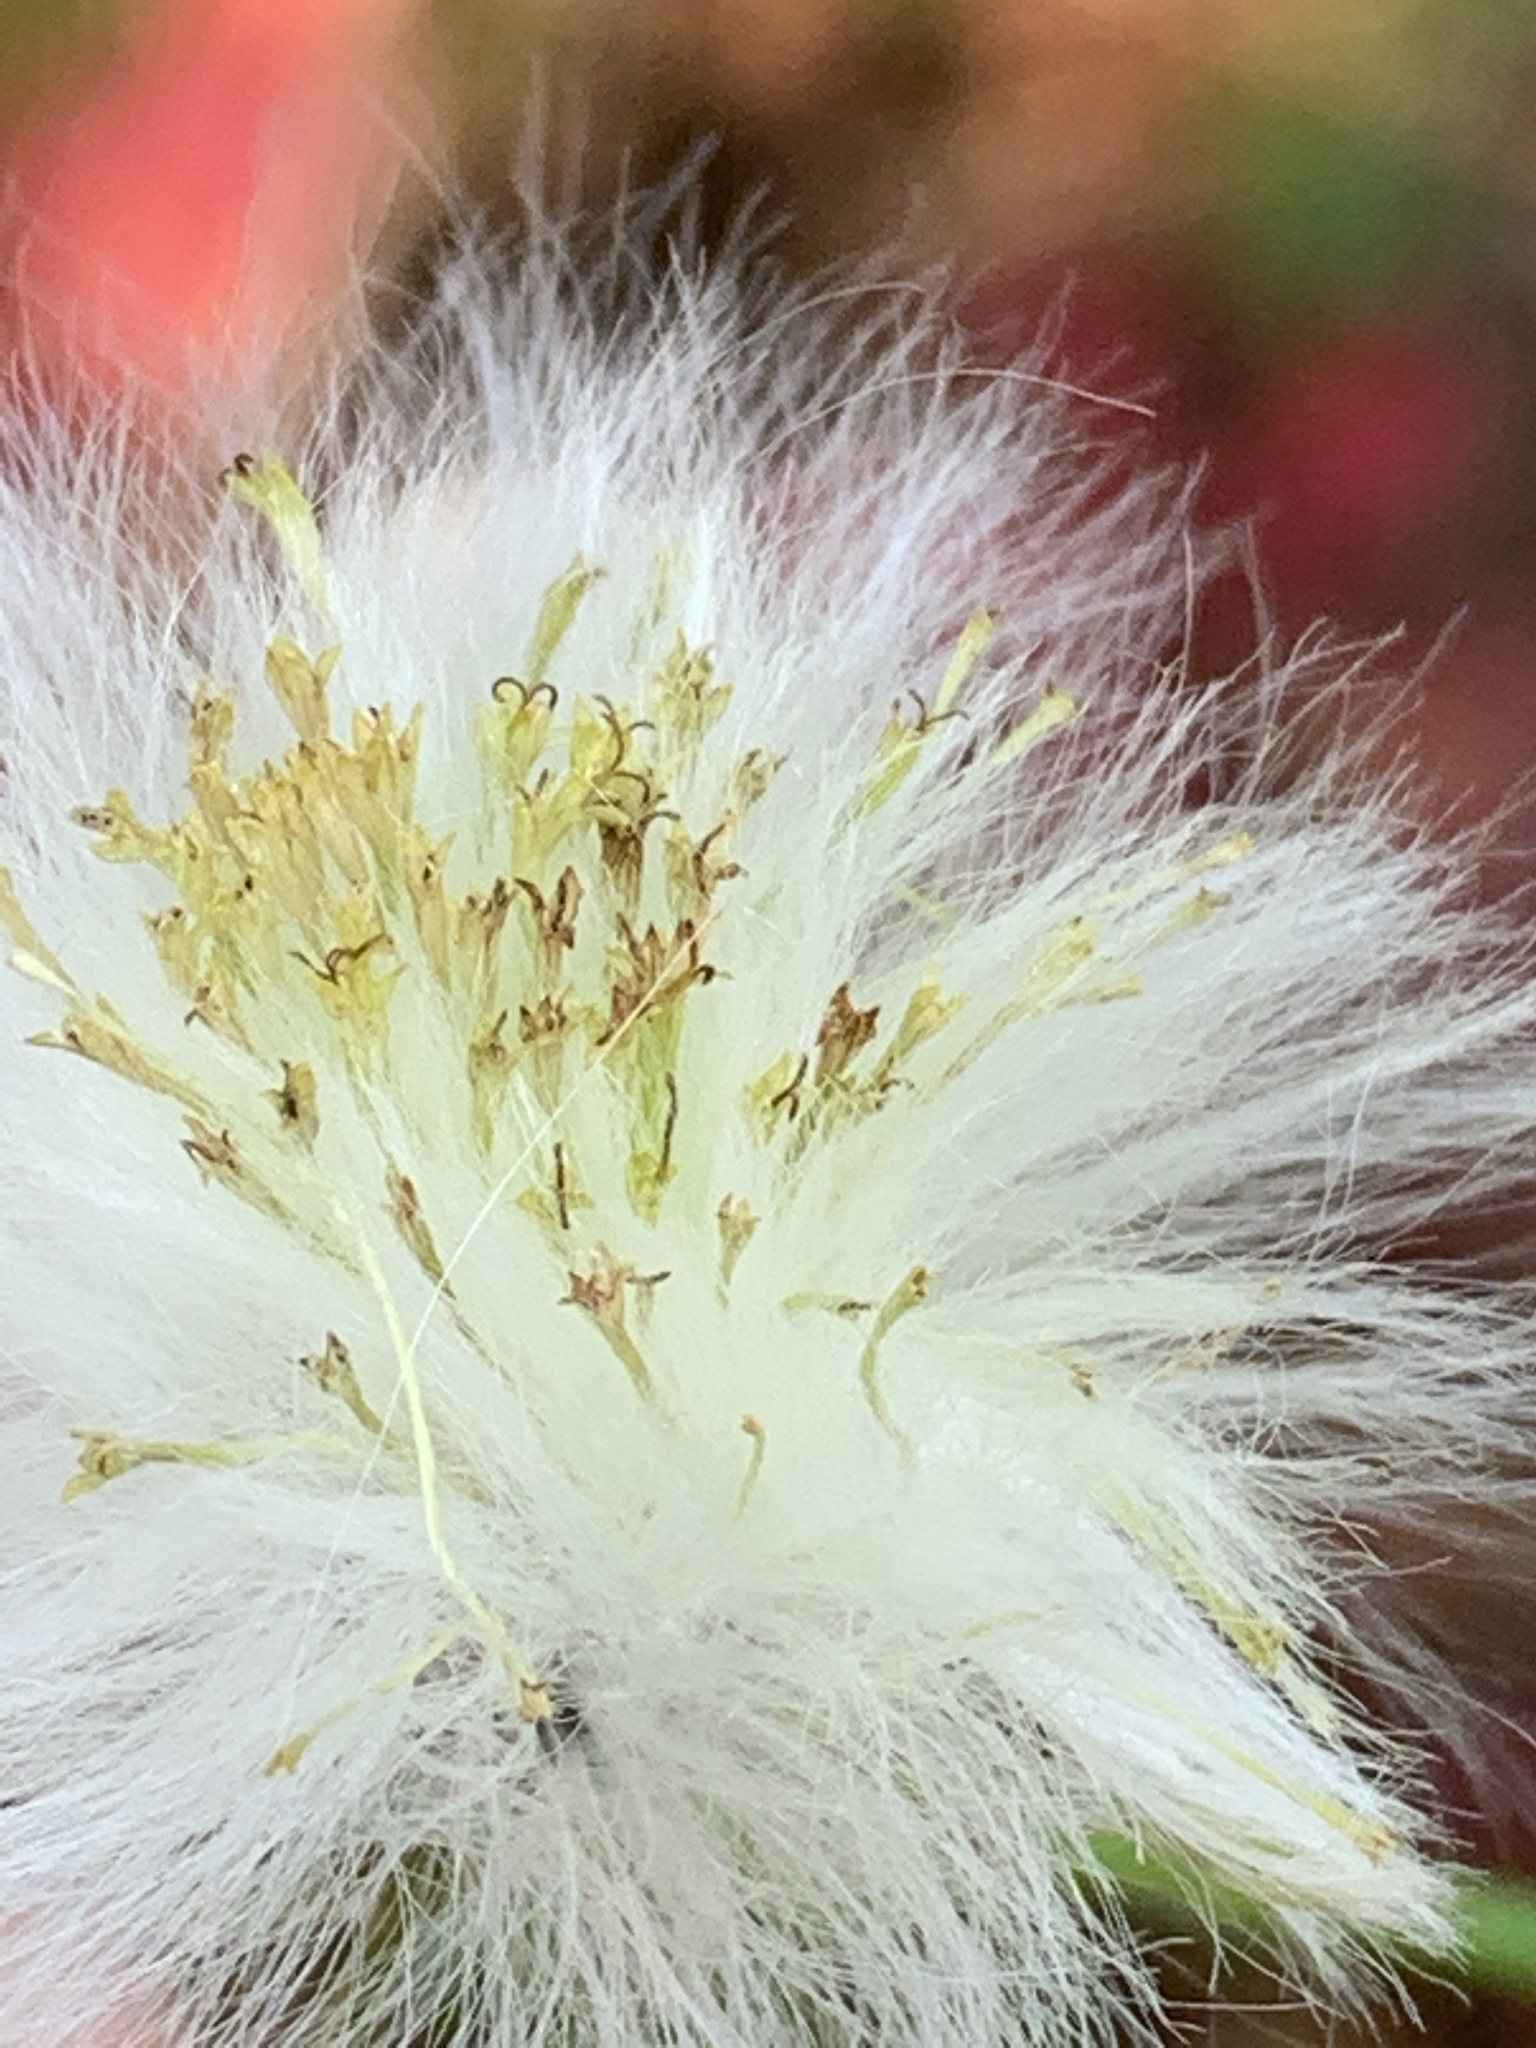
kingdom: Plantae
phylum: Tracheophyta
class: Magnoliopsida
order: Asterales
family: Asteraceae
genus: Erechtites
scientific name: Erechtites hieraciifolius
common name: American burnweed
